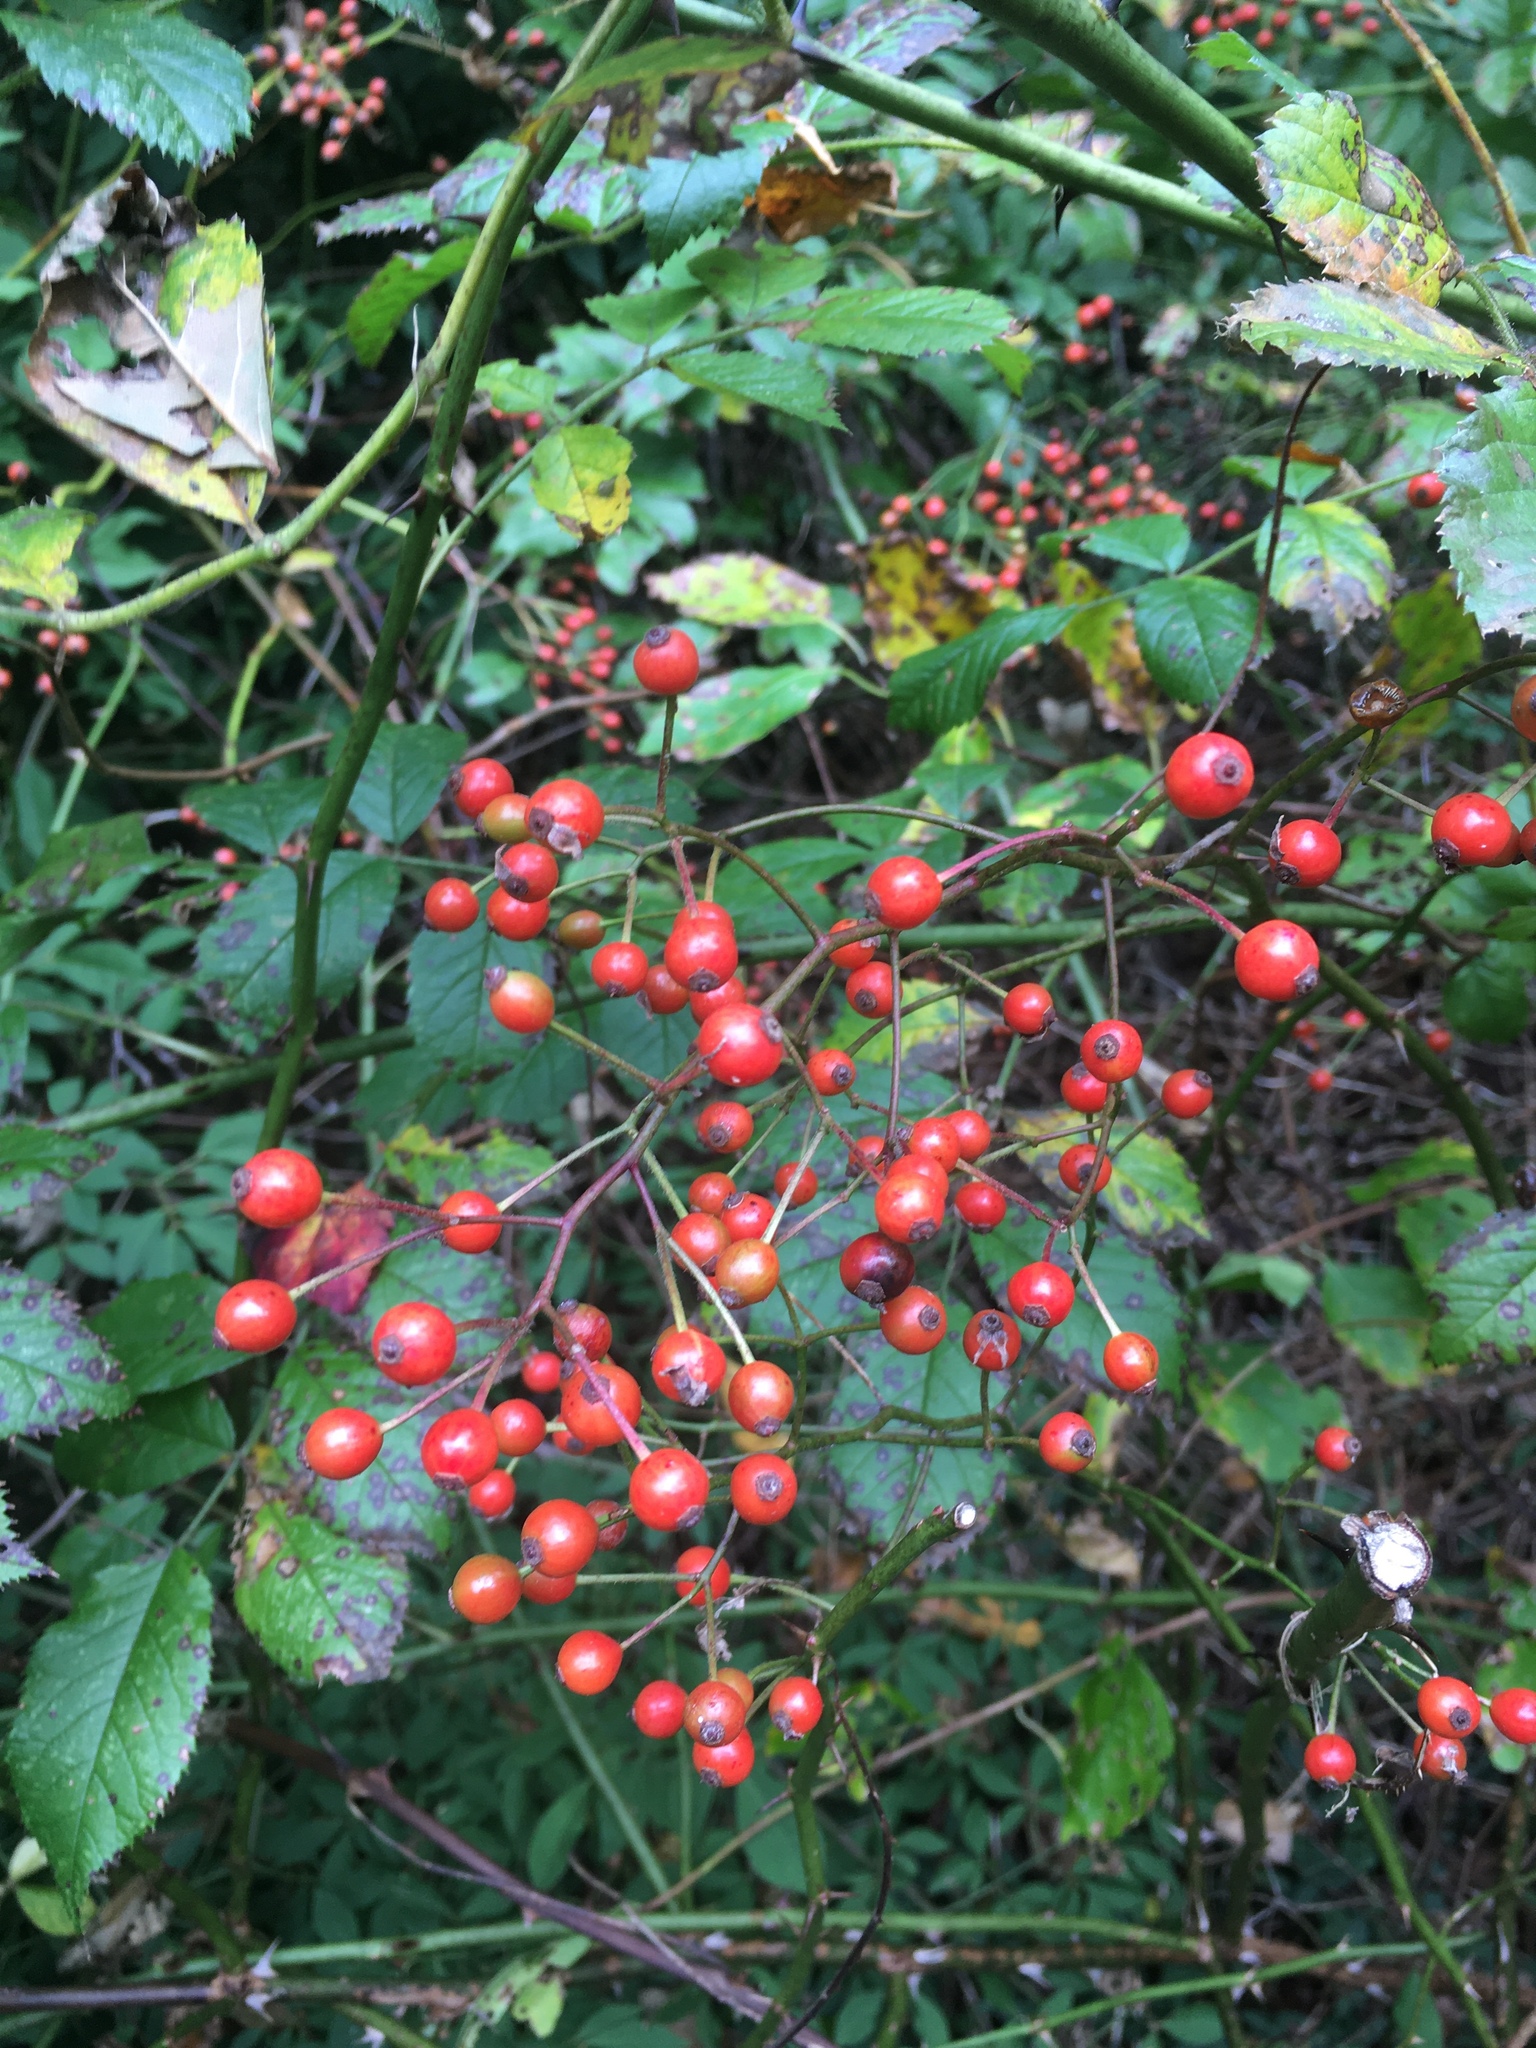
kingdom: Plantae
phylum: Tracheophyta
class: Magnoliopsida
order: Rosales
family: Rosaceae
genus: Rosa
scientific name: Rosa multiflora
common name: Multiflora rose
